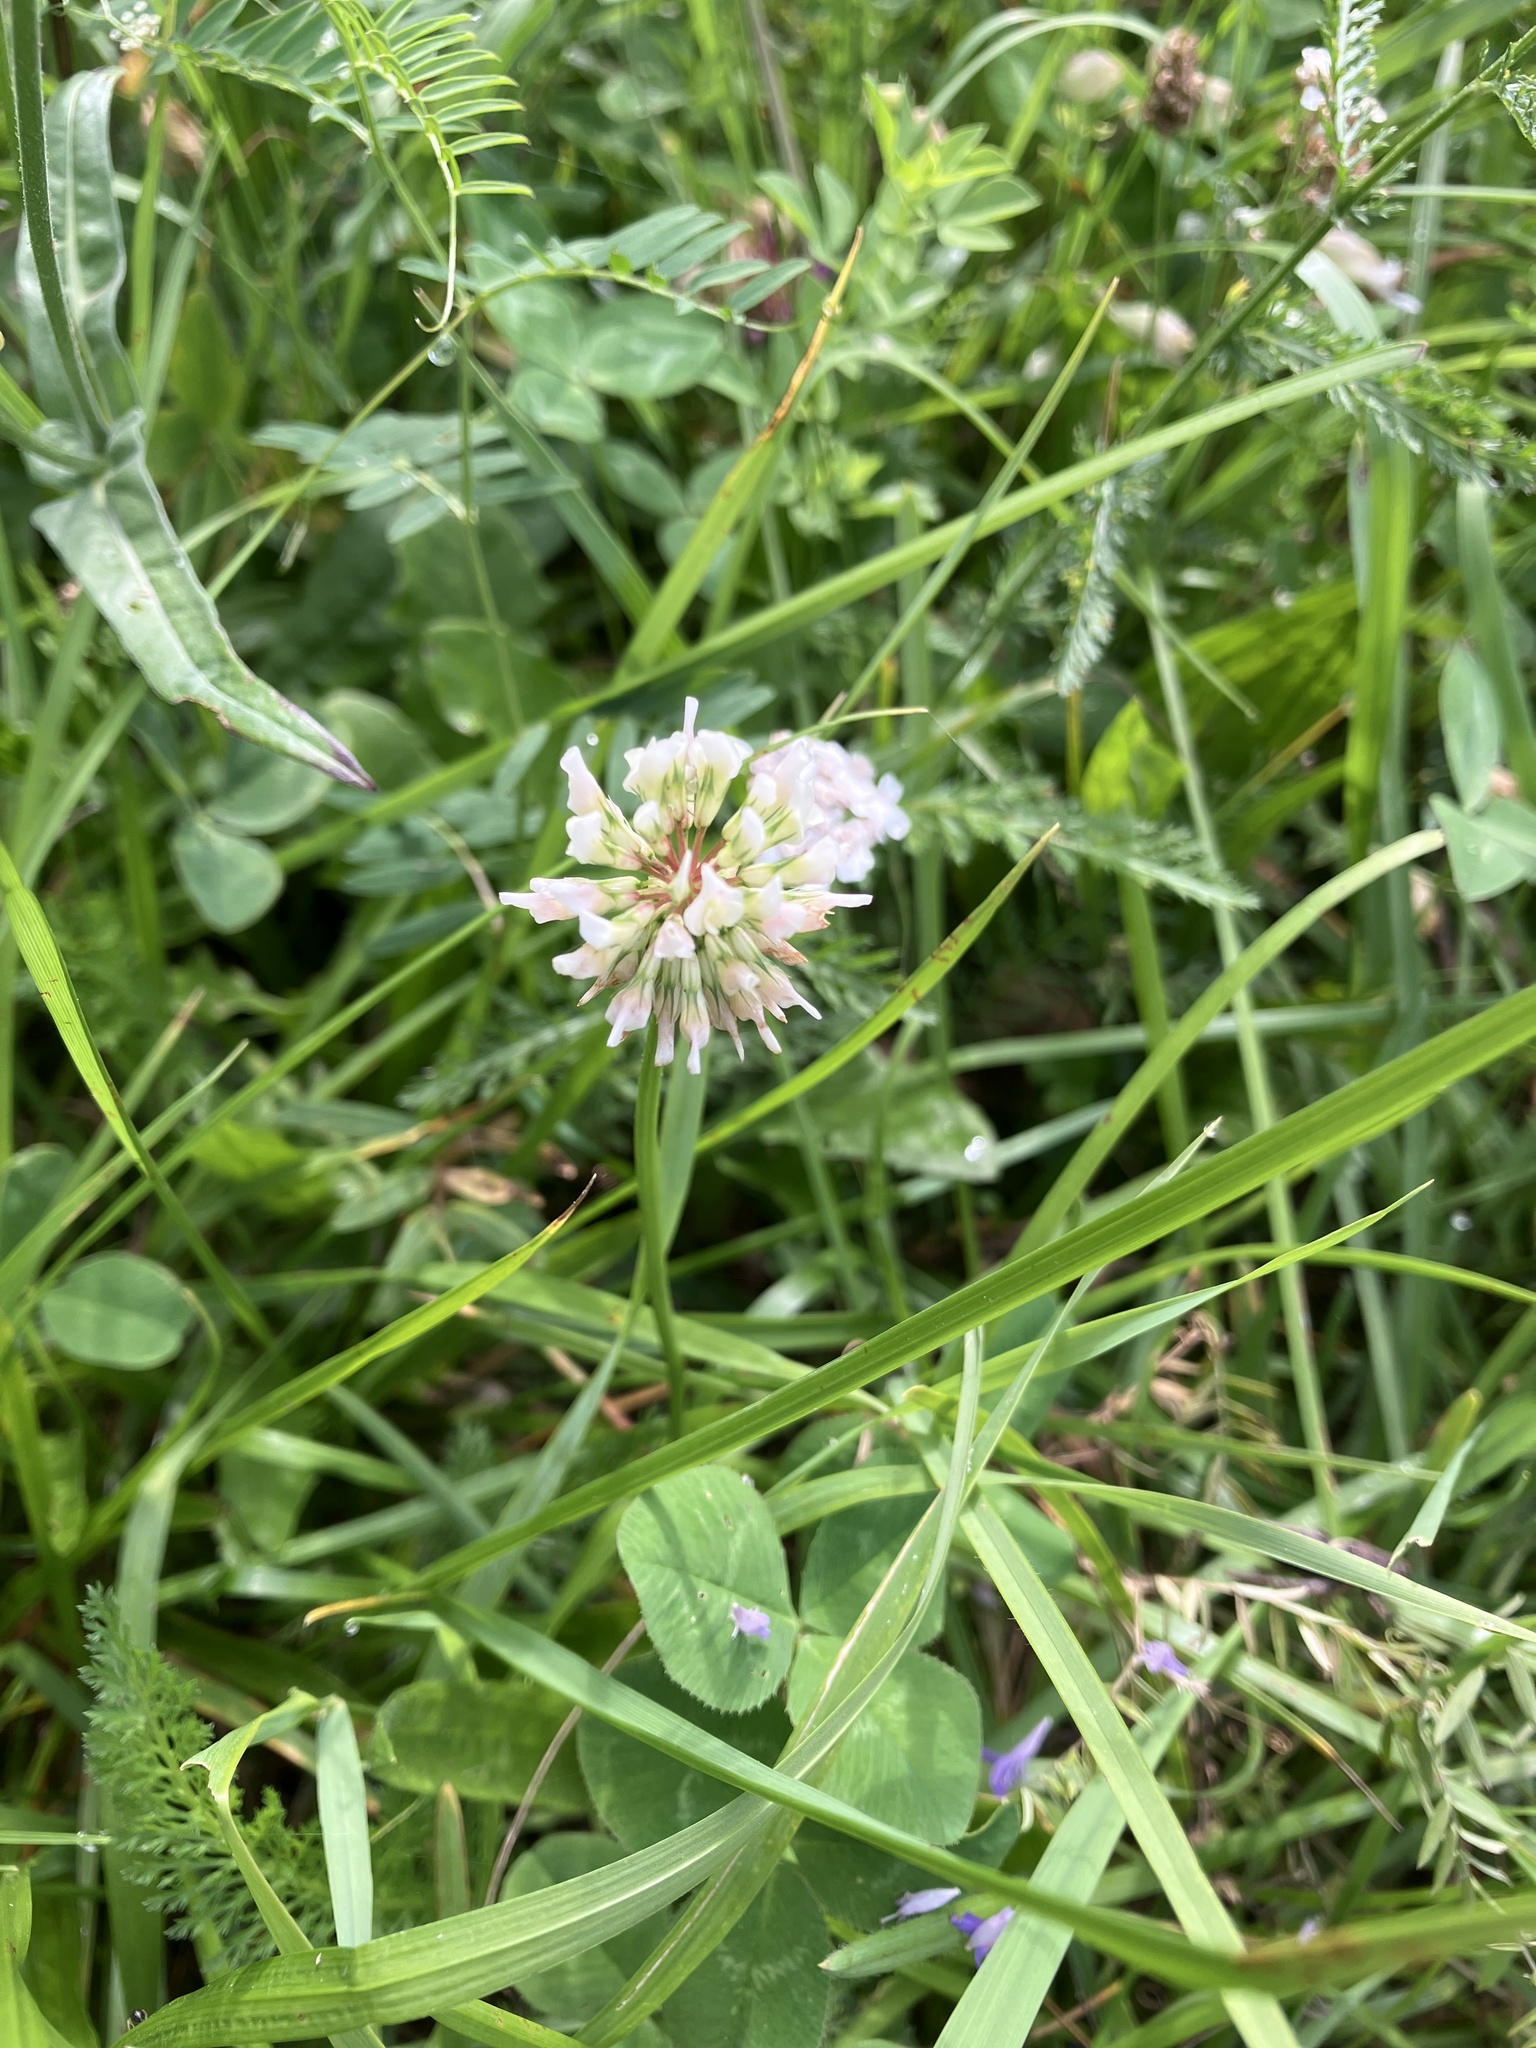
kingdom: Plantae
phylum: Tracheophyta
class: Magnoliopsida
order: Fabales
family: Fabaceae
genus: Trifolium
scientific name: Trifolium repens
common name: White clover
